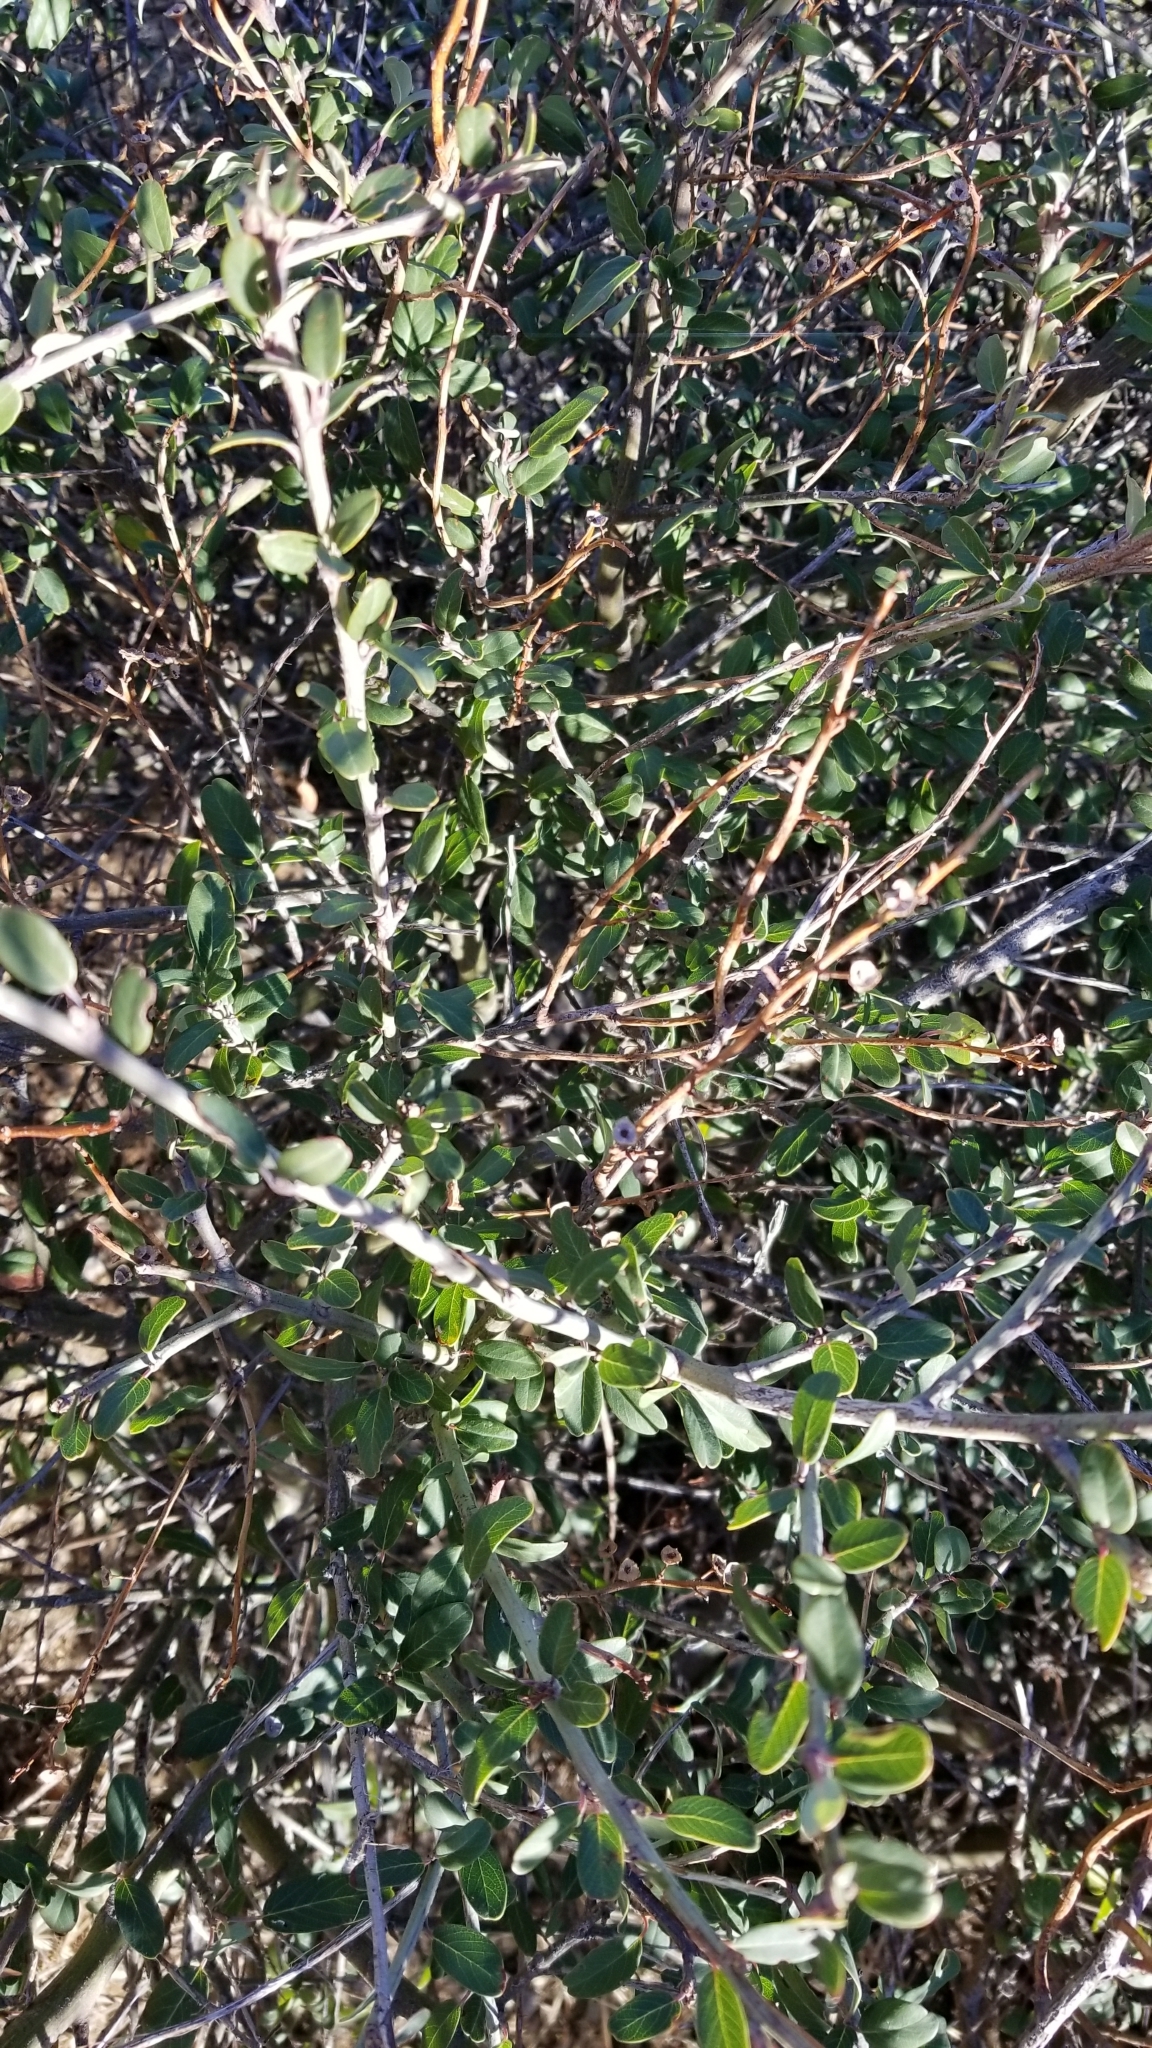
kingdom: Plantae
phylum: Tracheophyta
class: Magnoliopsida
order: Rosales
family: Rhamnaceae
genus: Ceanothus
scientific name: Ceanothus palmeri
